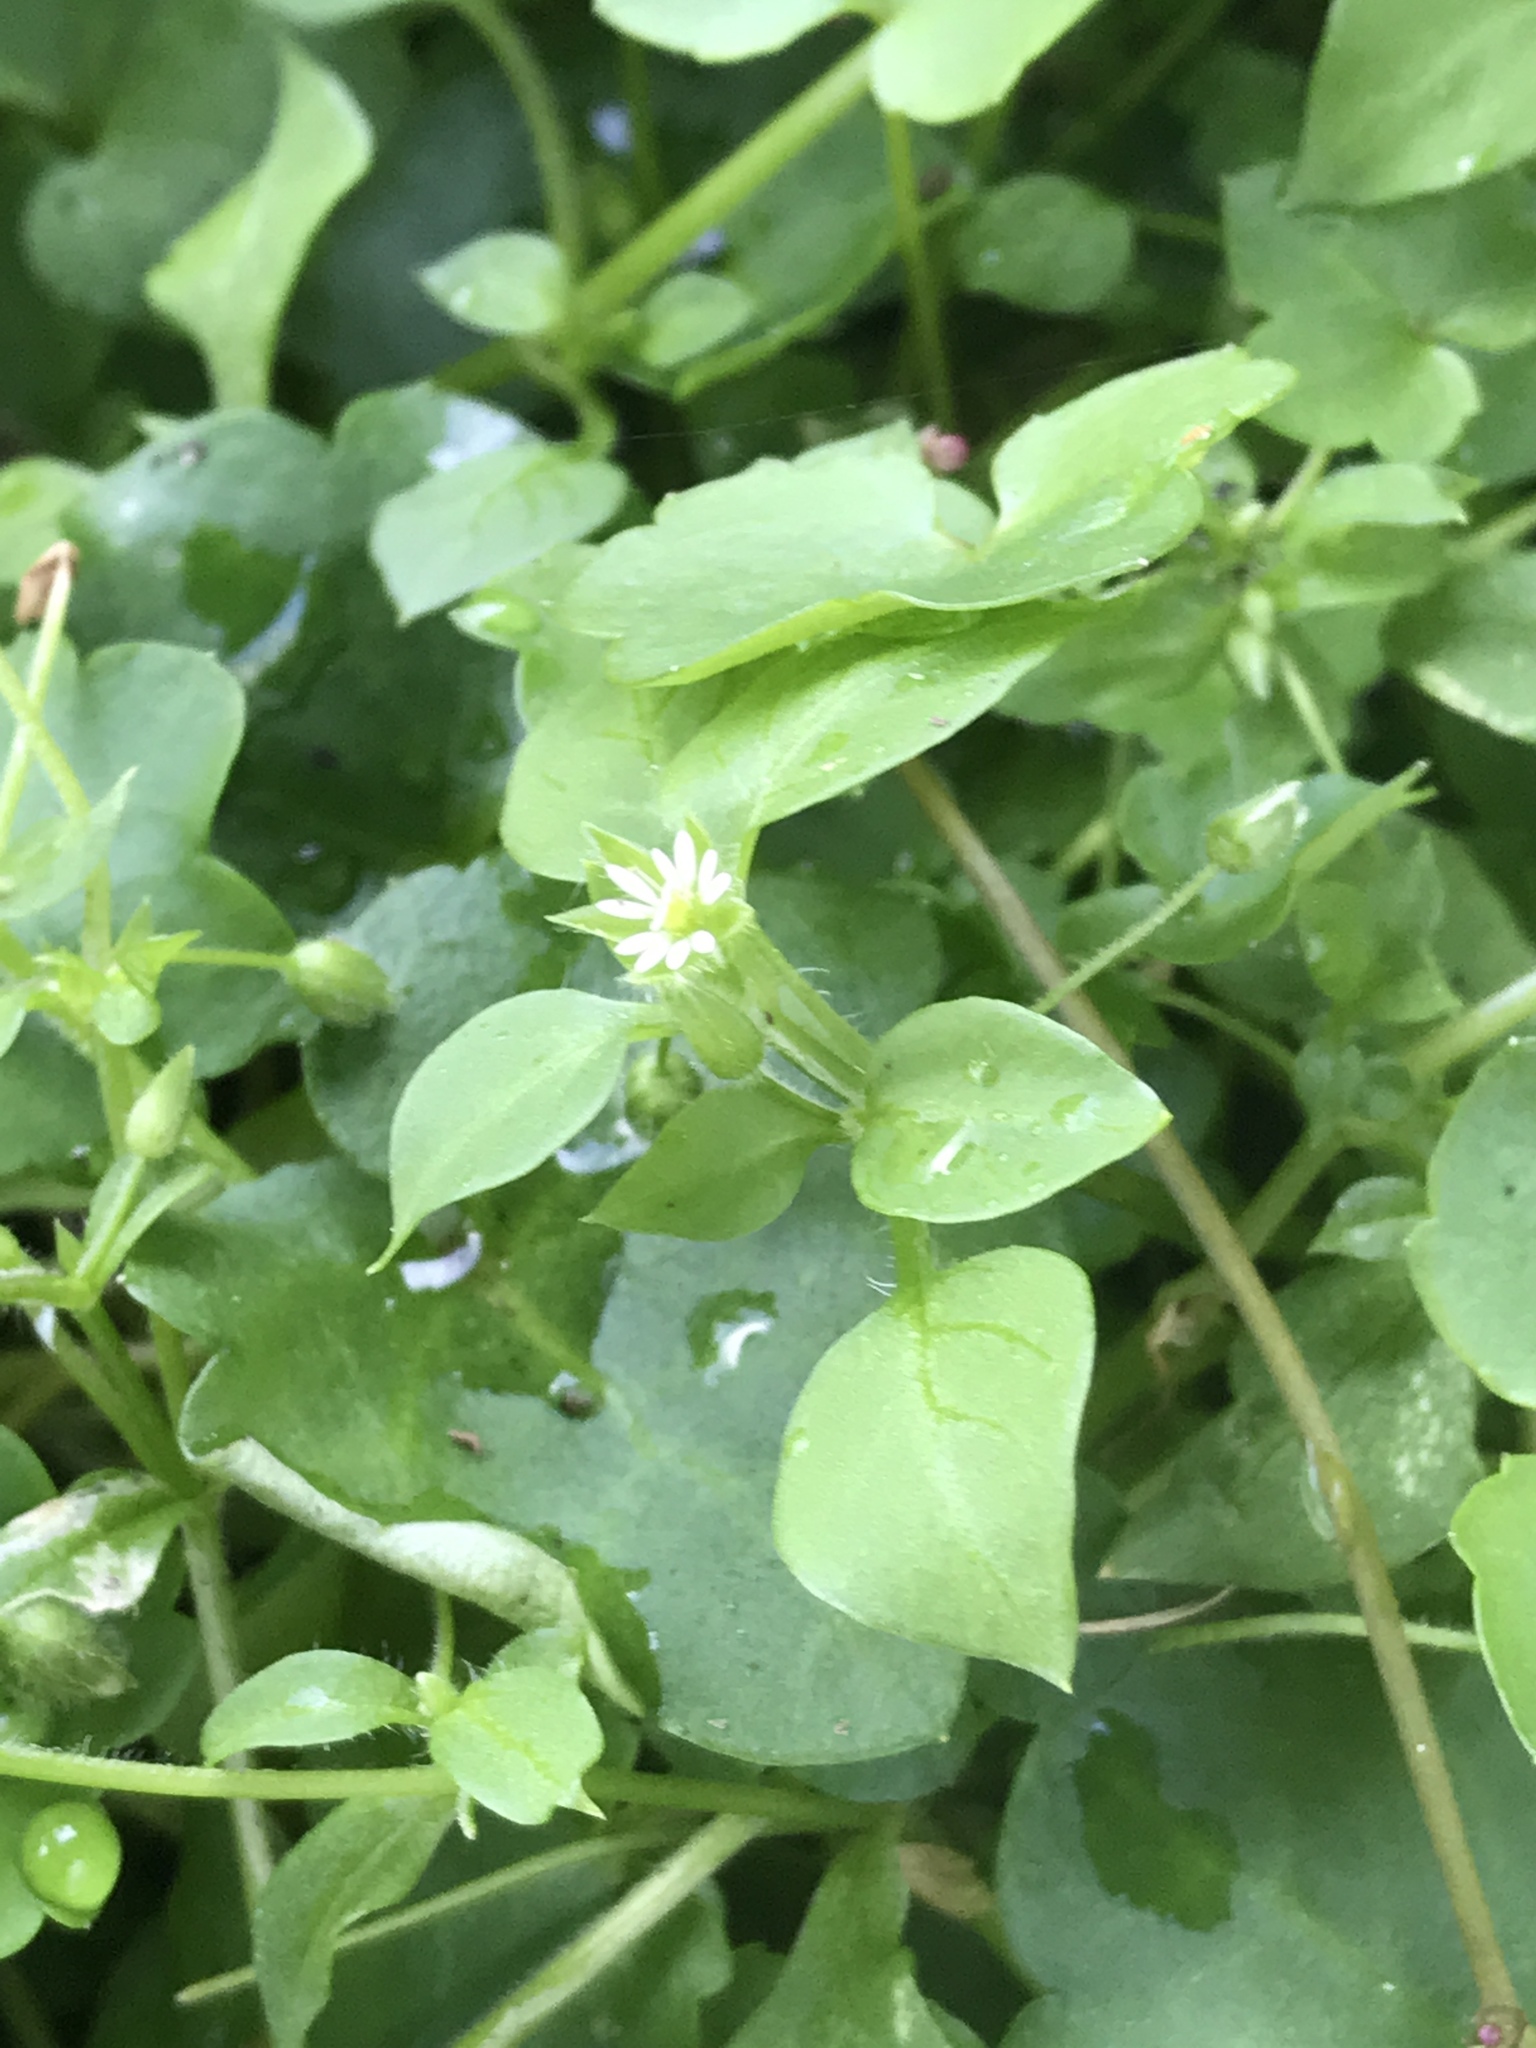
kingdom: Plantae
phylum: Tracheophyta
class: Magnoliopsida
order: Caryophyllales
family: Caryophyllaceae
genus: Stellaria
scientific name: Stellaria media
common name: Common chickweed
